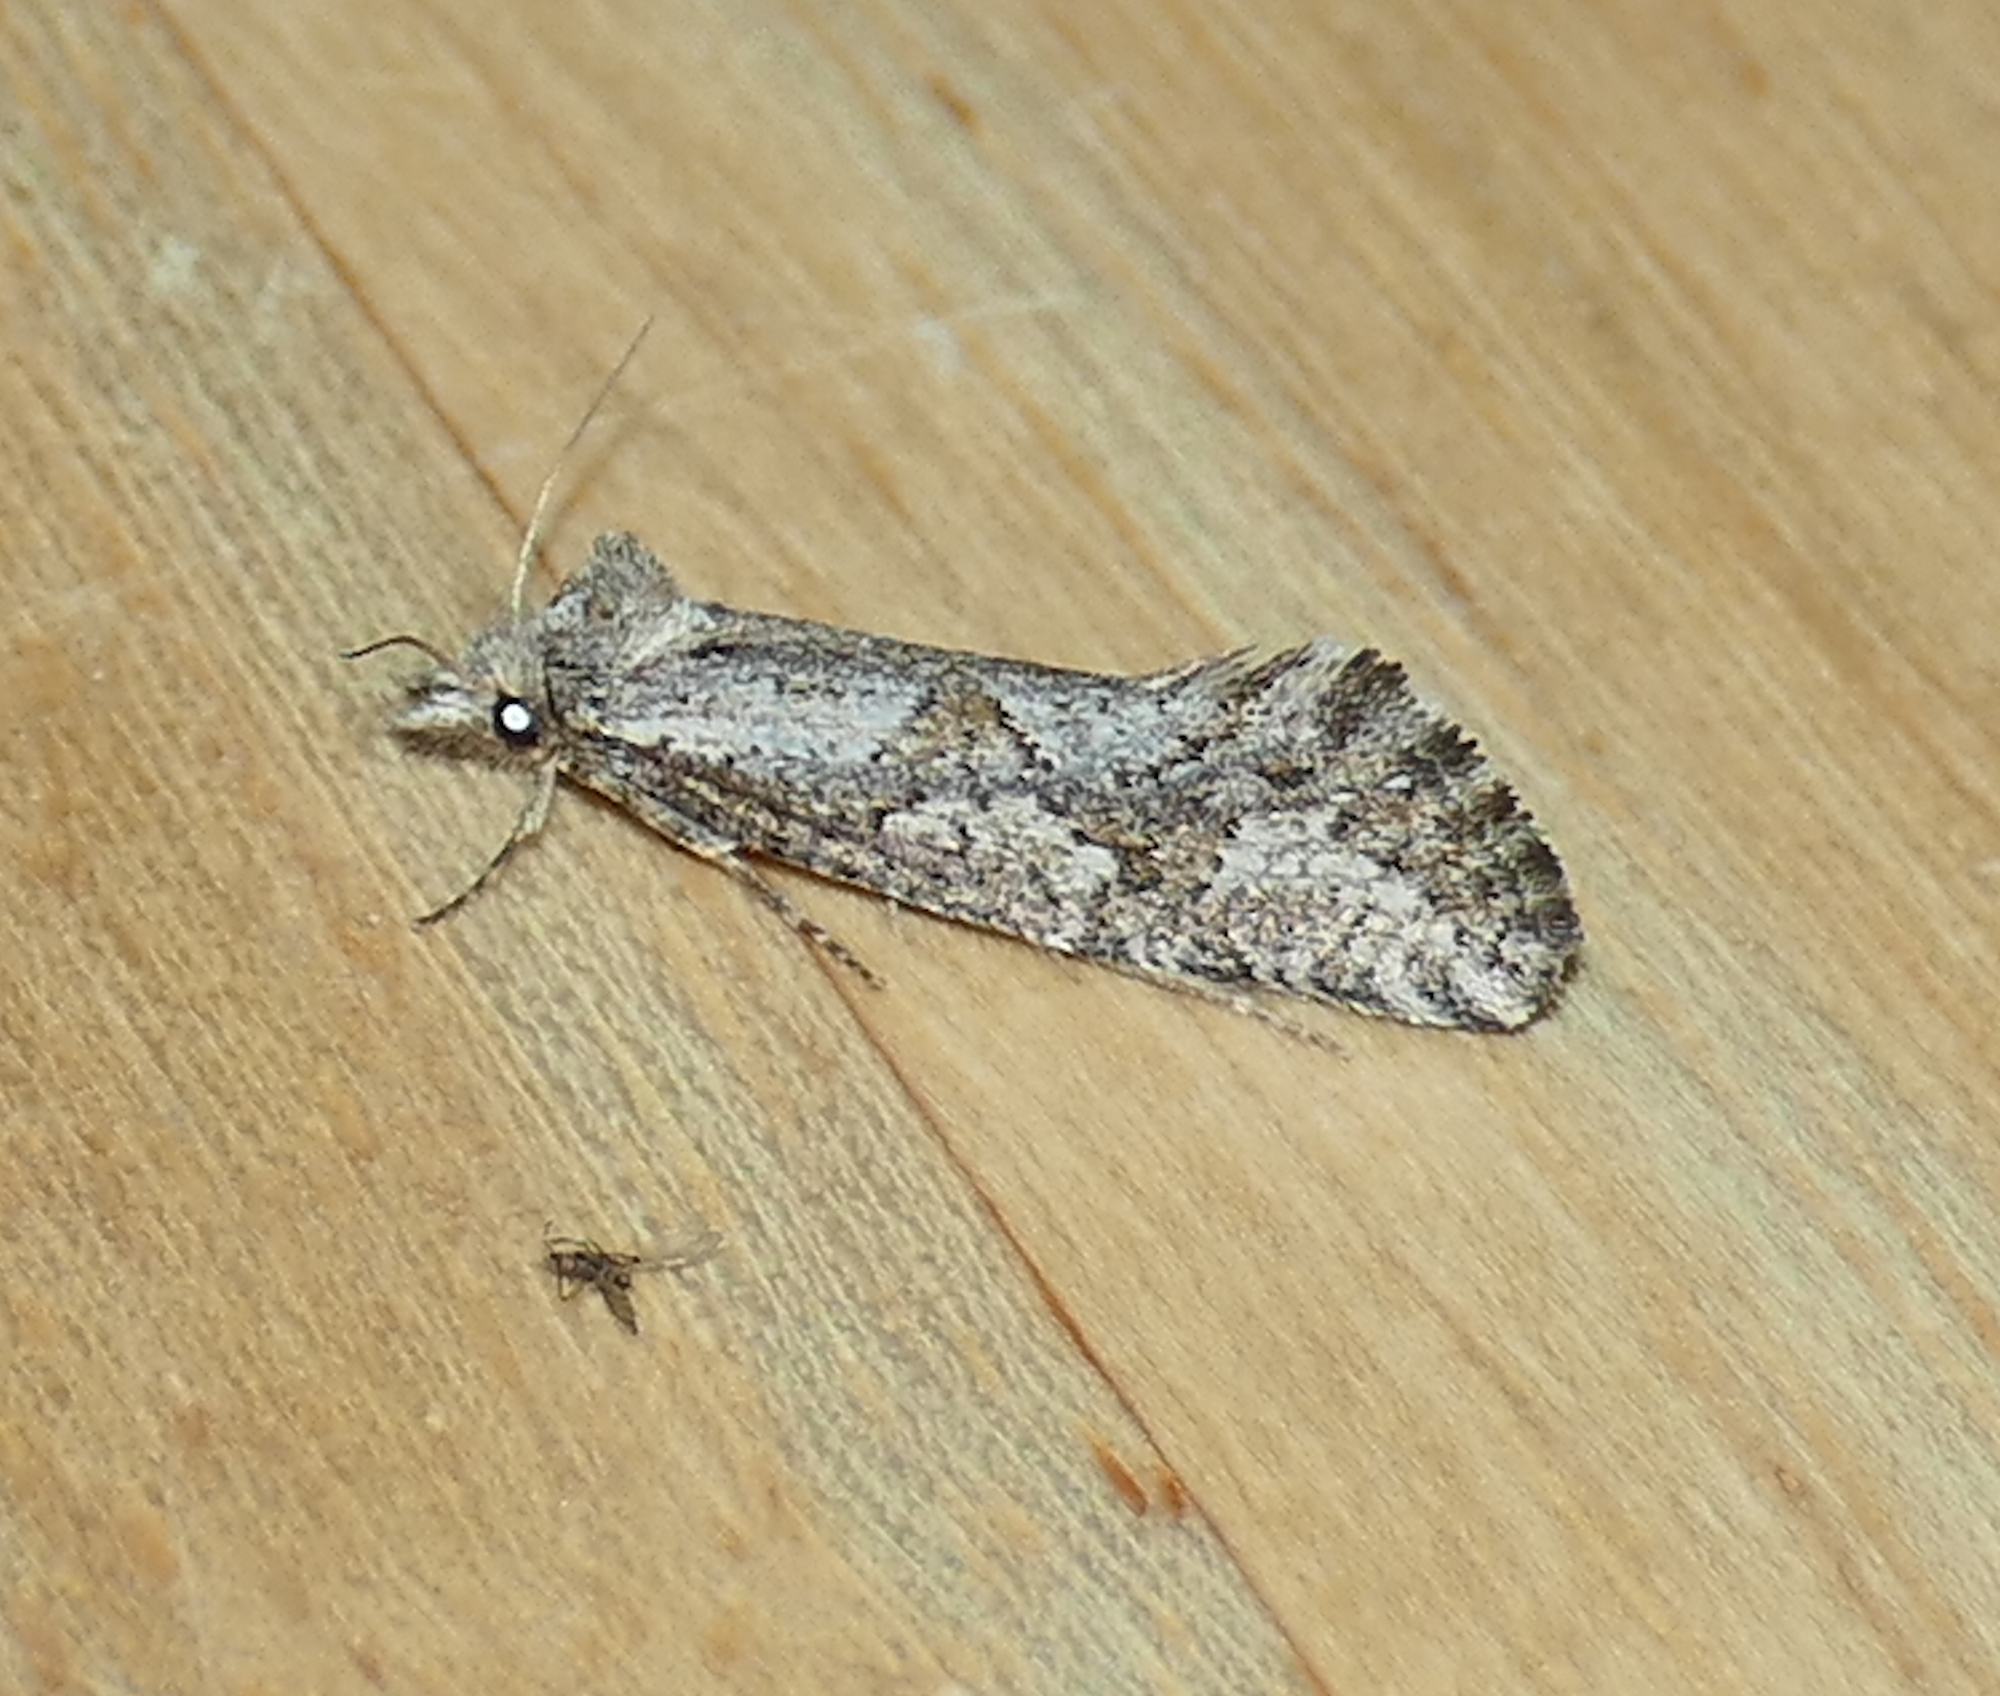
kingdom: Animalia
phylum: Arthropoda
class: Insecta
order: Lepidoptera
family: Tineidae
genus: Acrolophus
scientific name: Acrolophus variabilis
